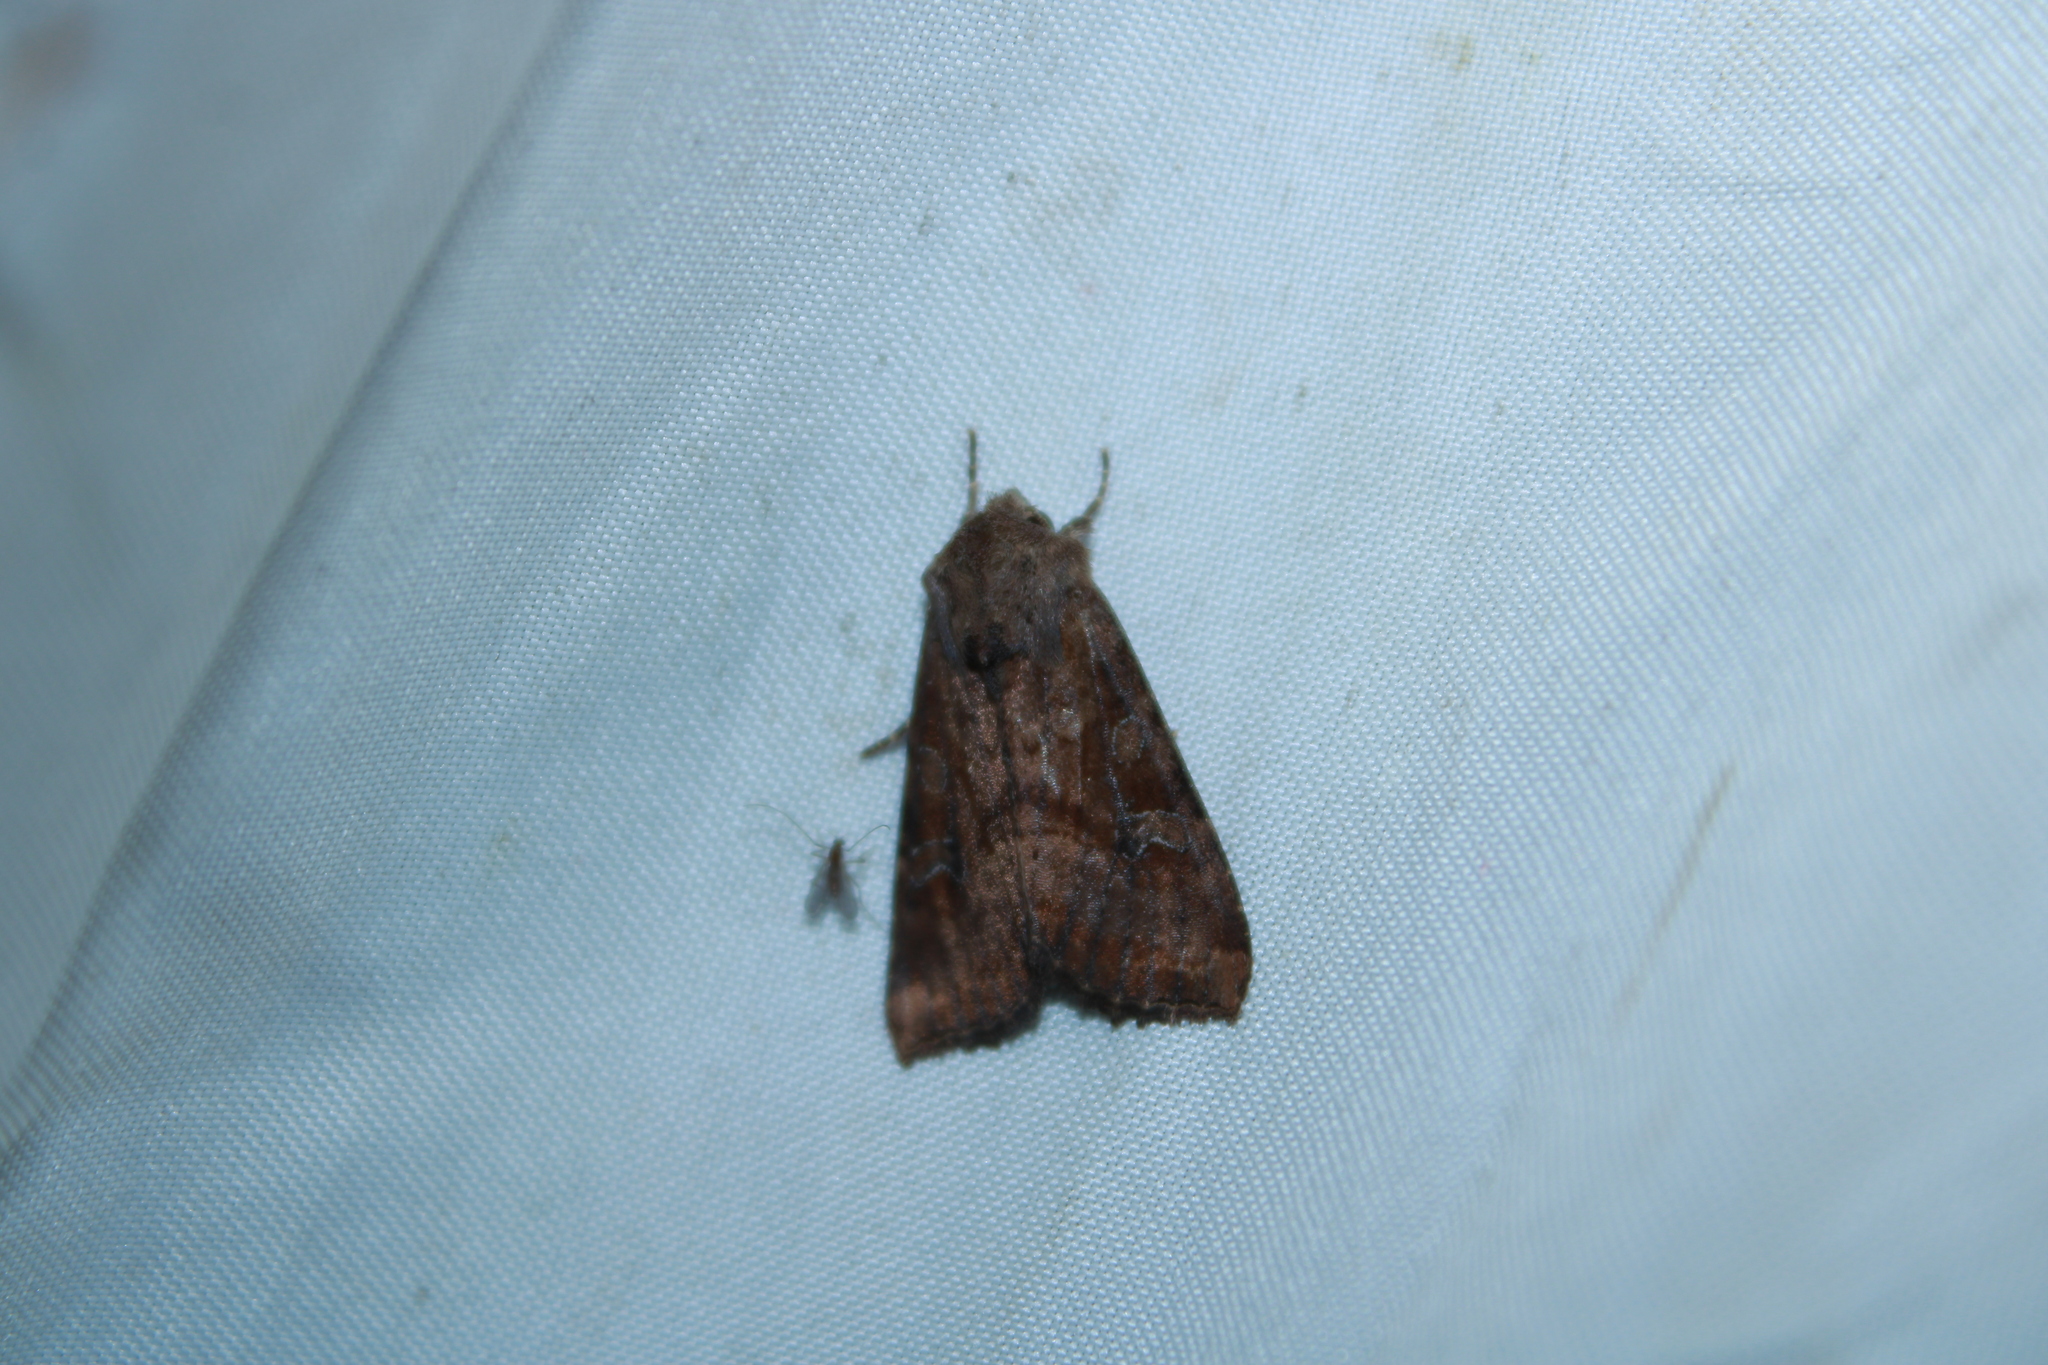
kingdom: Animalia
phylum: Arthropoda
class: Insecta
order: Lepidoptera
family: Noctuidae
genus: Loscopia
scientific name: Loscopia velata
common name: Veiled ear moth
